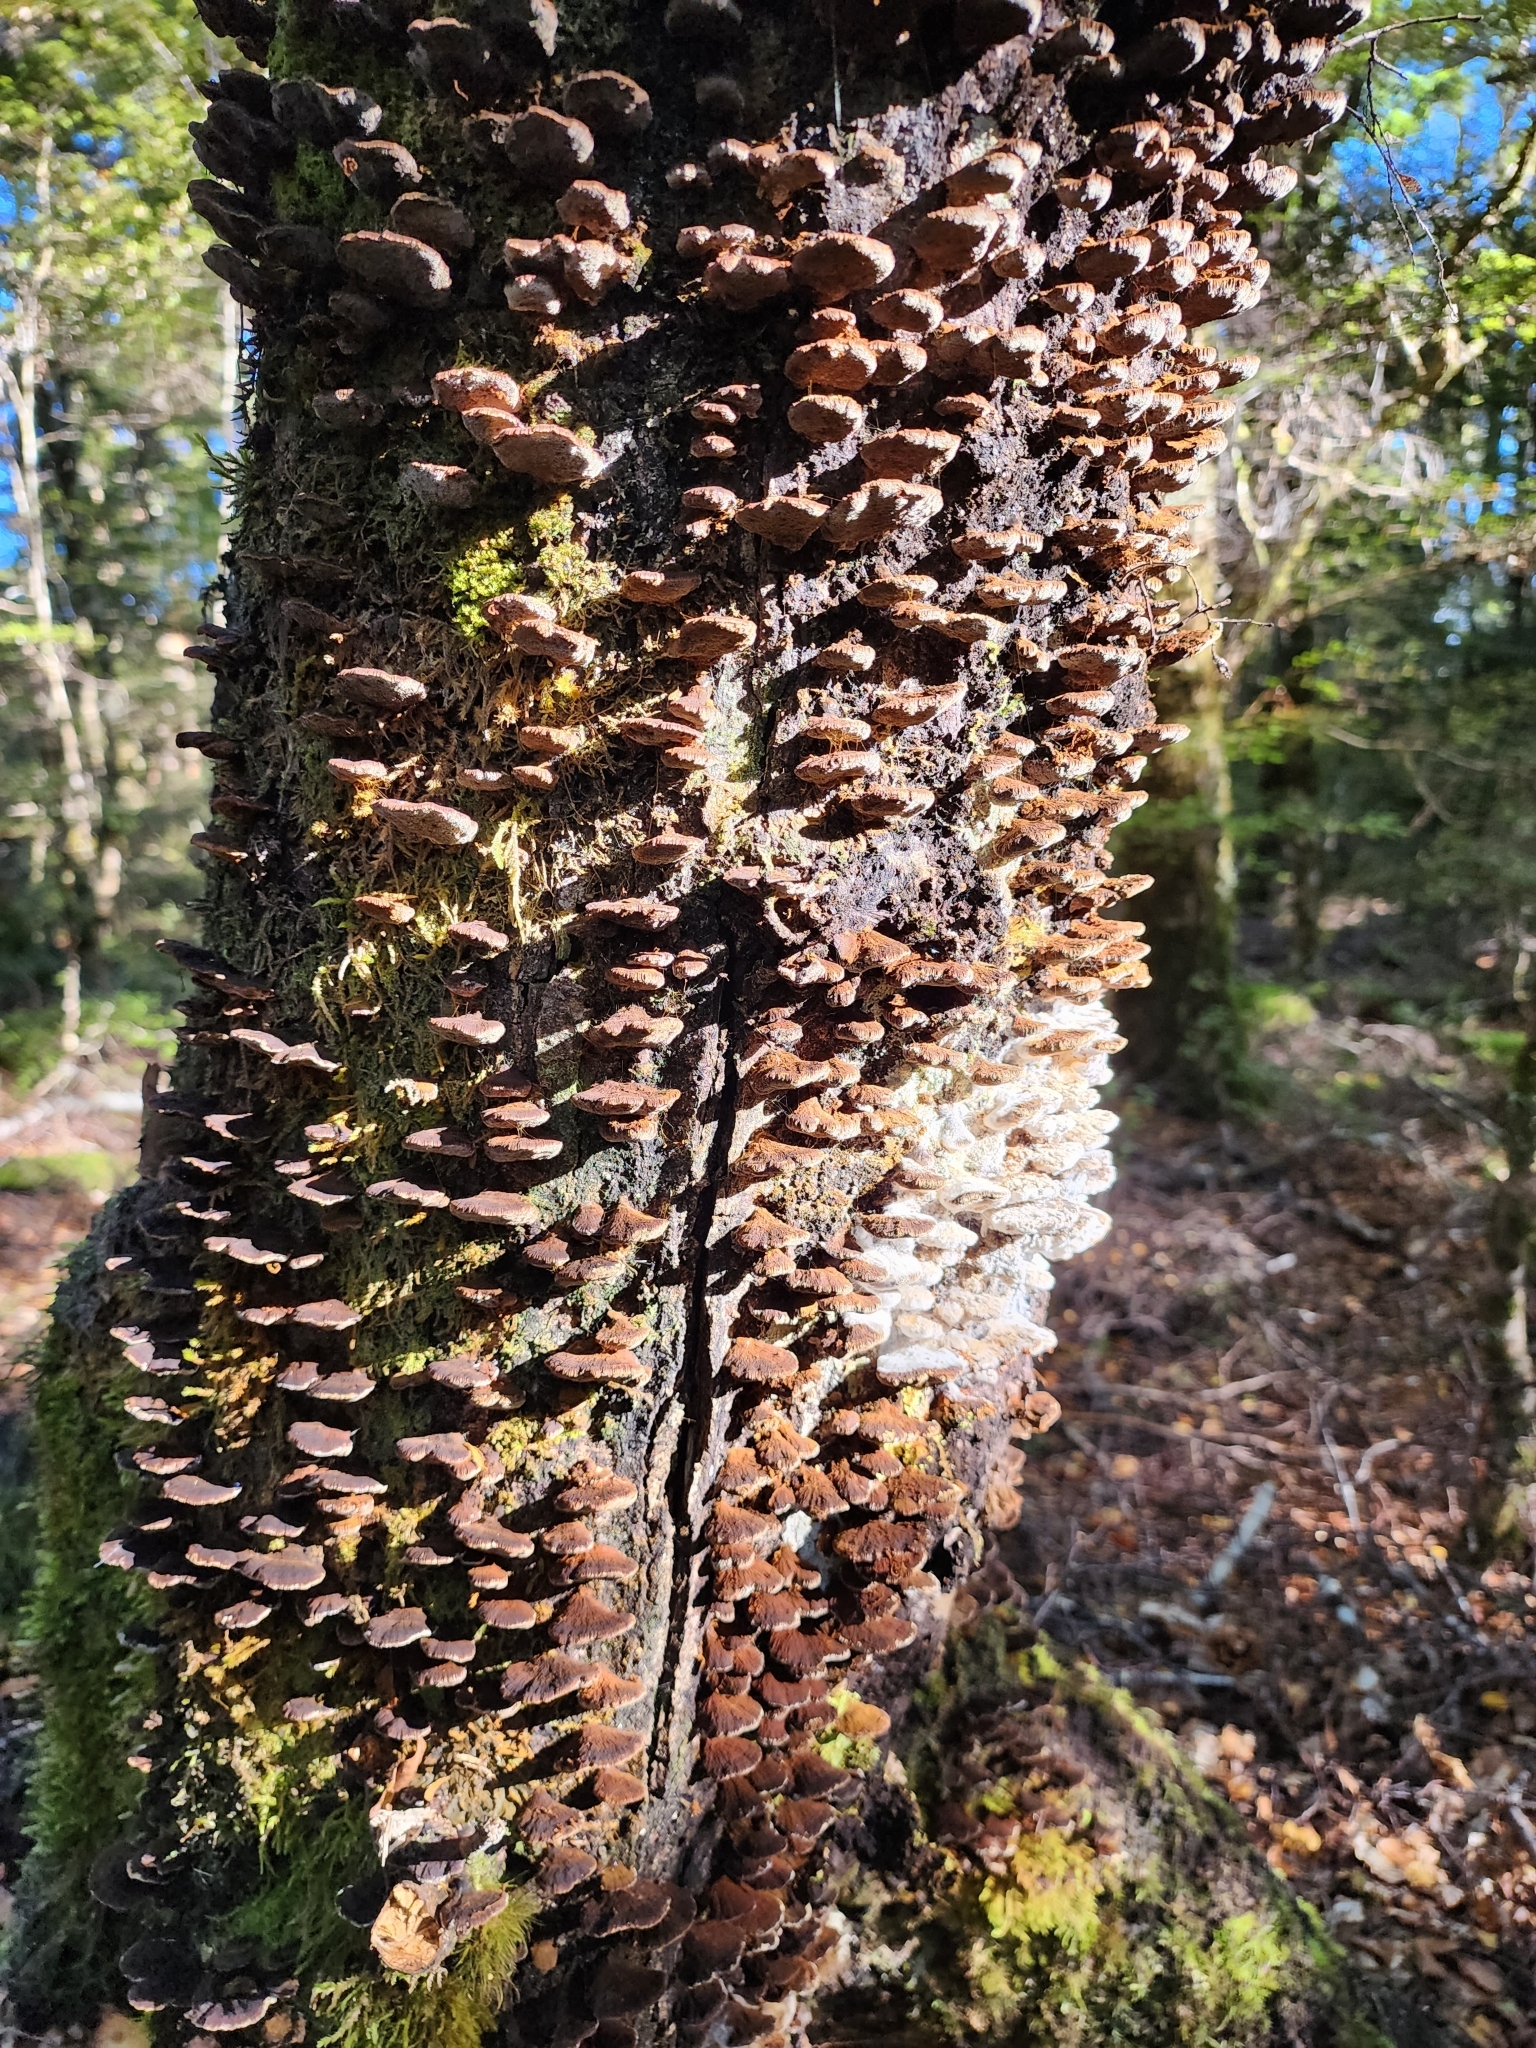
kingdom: Fungi
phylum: Basidiomycota
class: Agaricomycetes
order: Hymenochaetales
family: Hymenochaetaceae
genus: Nothonotus
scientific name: Nothonotus nothofagi
